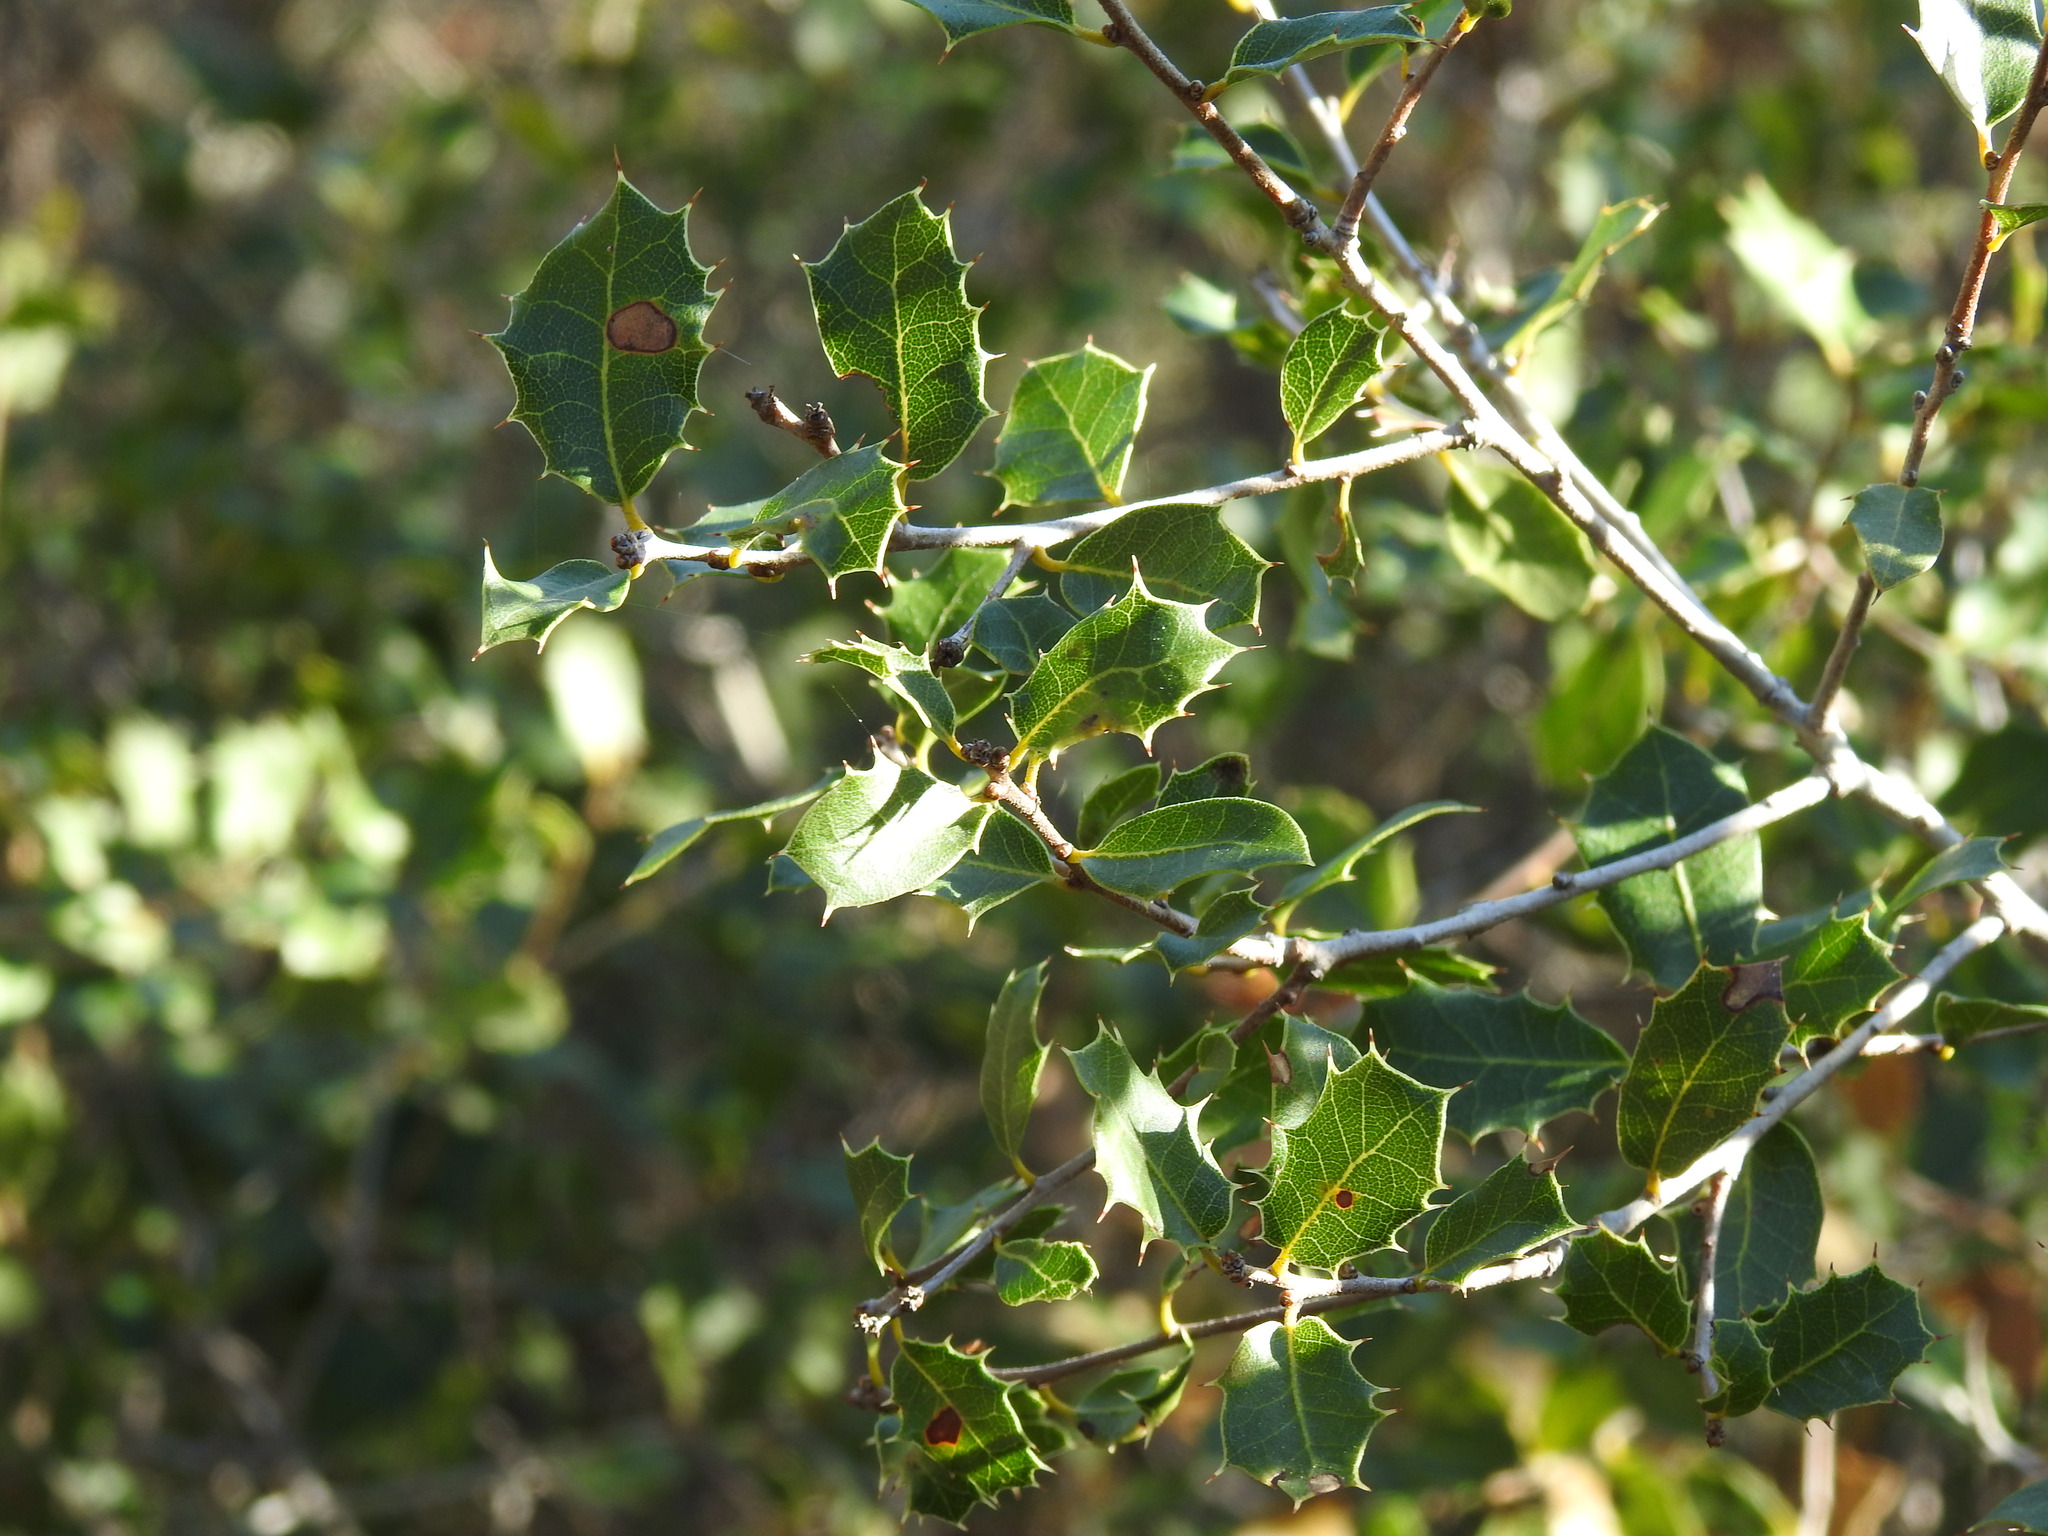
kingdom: Plantae
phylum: Tracheophyta
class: Magnoliopsida
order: Fagales
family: Fagaceae
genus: Quercus
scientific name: Quercus coccifera
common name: Kermes oak
